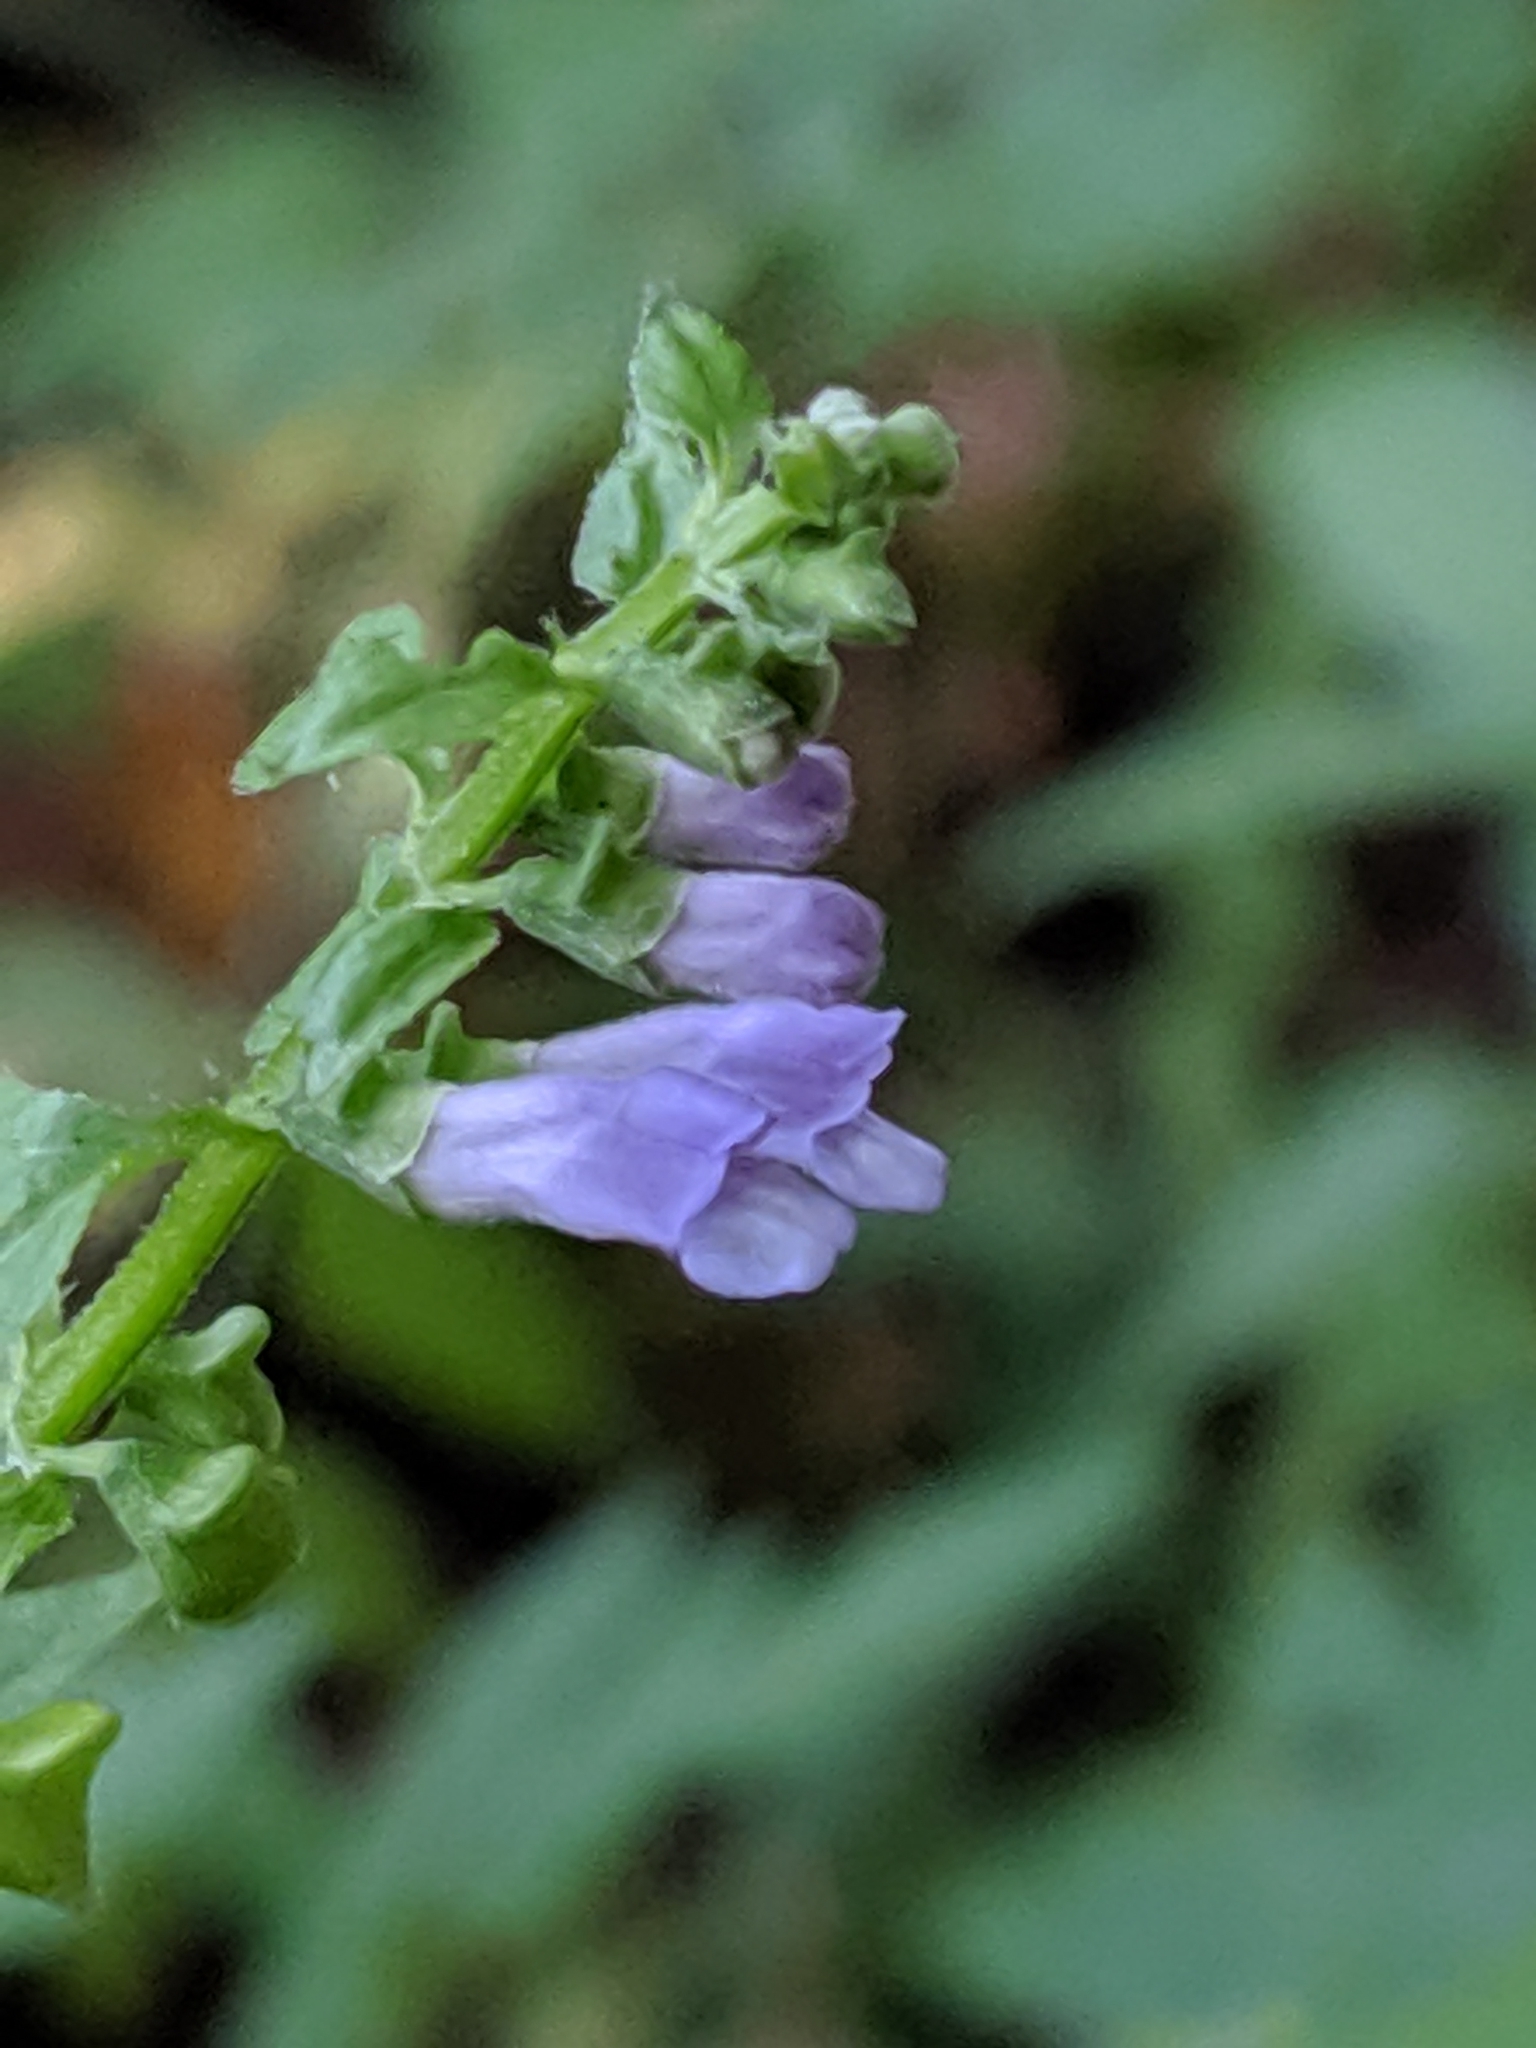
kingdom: Plantae
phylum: Tracheophyta
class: Magnoliopsida
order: Lamiales
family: Lamiaceae
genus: Scutellaria
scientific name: Scutellaria lateriflora
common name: Blue skullcap
